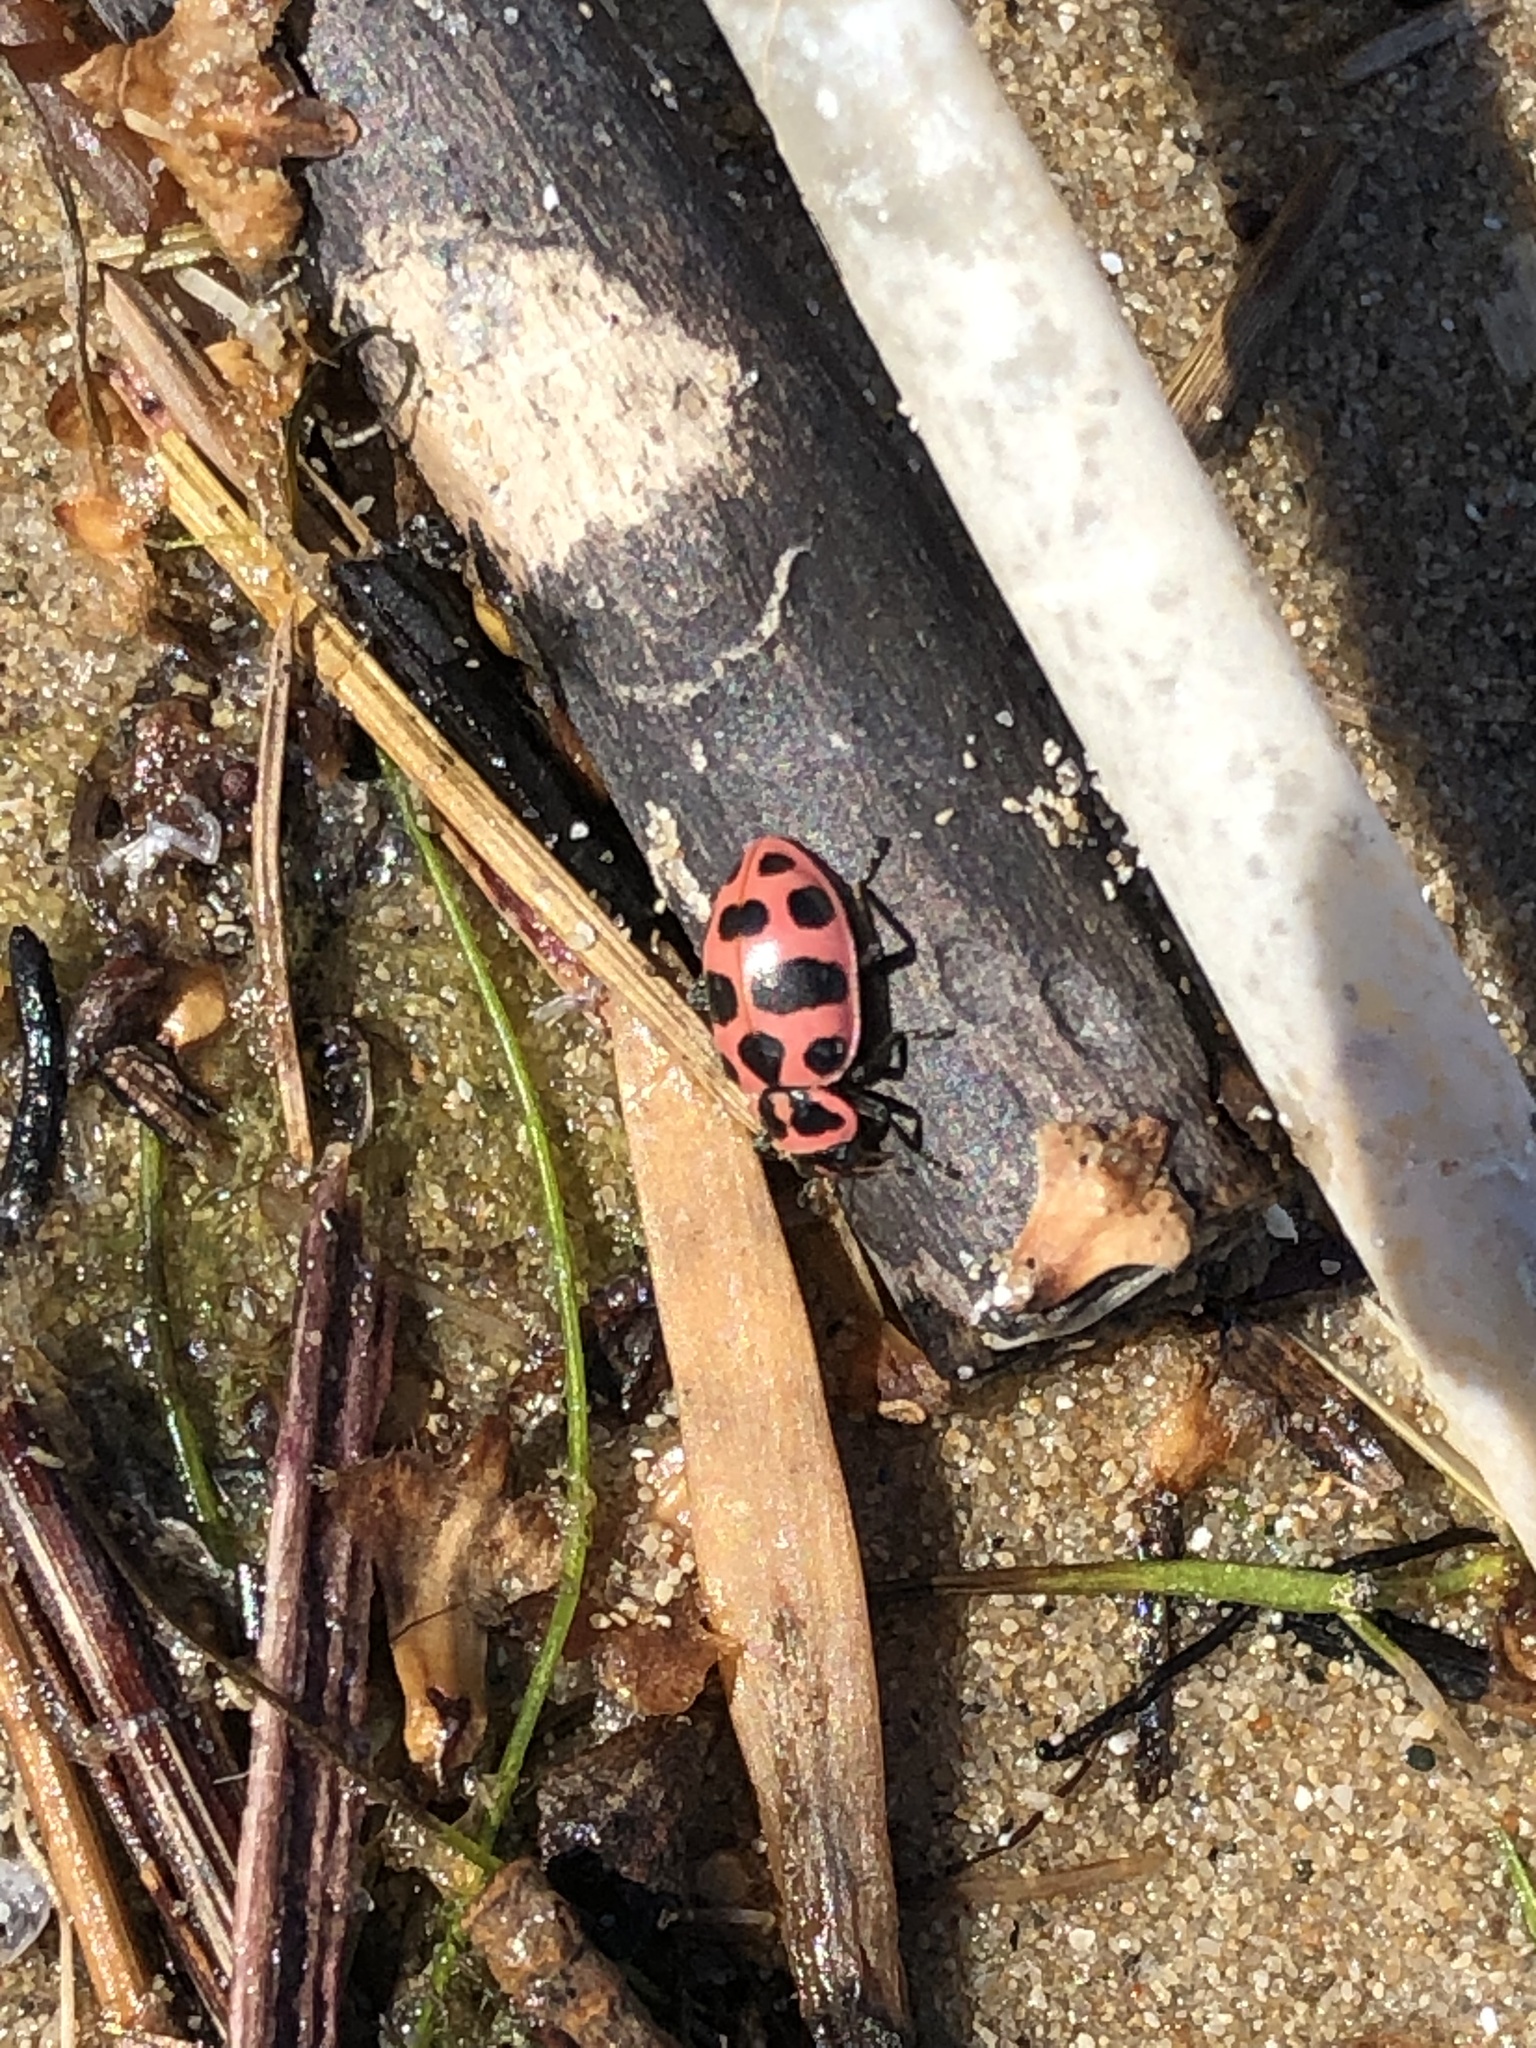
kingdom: Animalia
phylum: Arthropoda
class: Insecta
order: Coleoptera
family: Coccinellidae
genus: Coleomegilla
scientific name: Coleomegilla maculata
